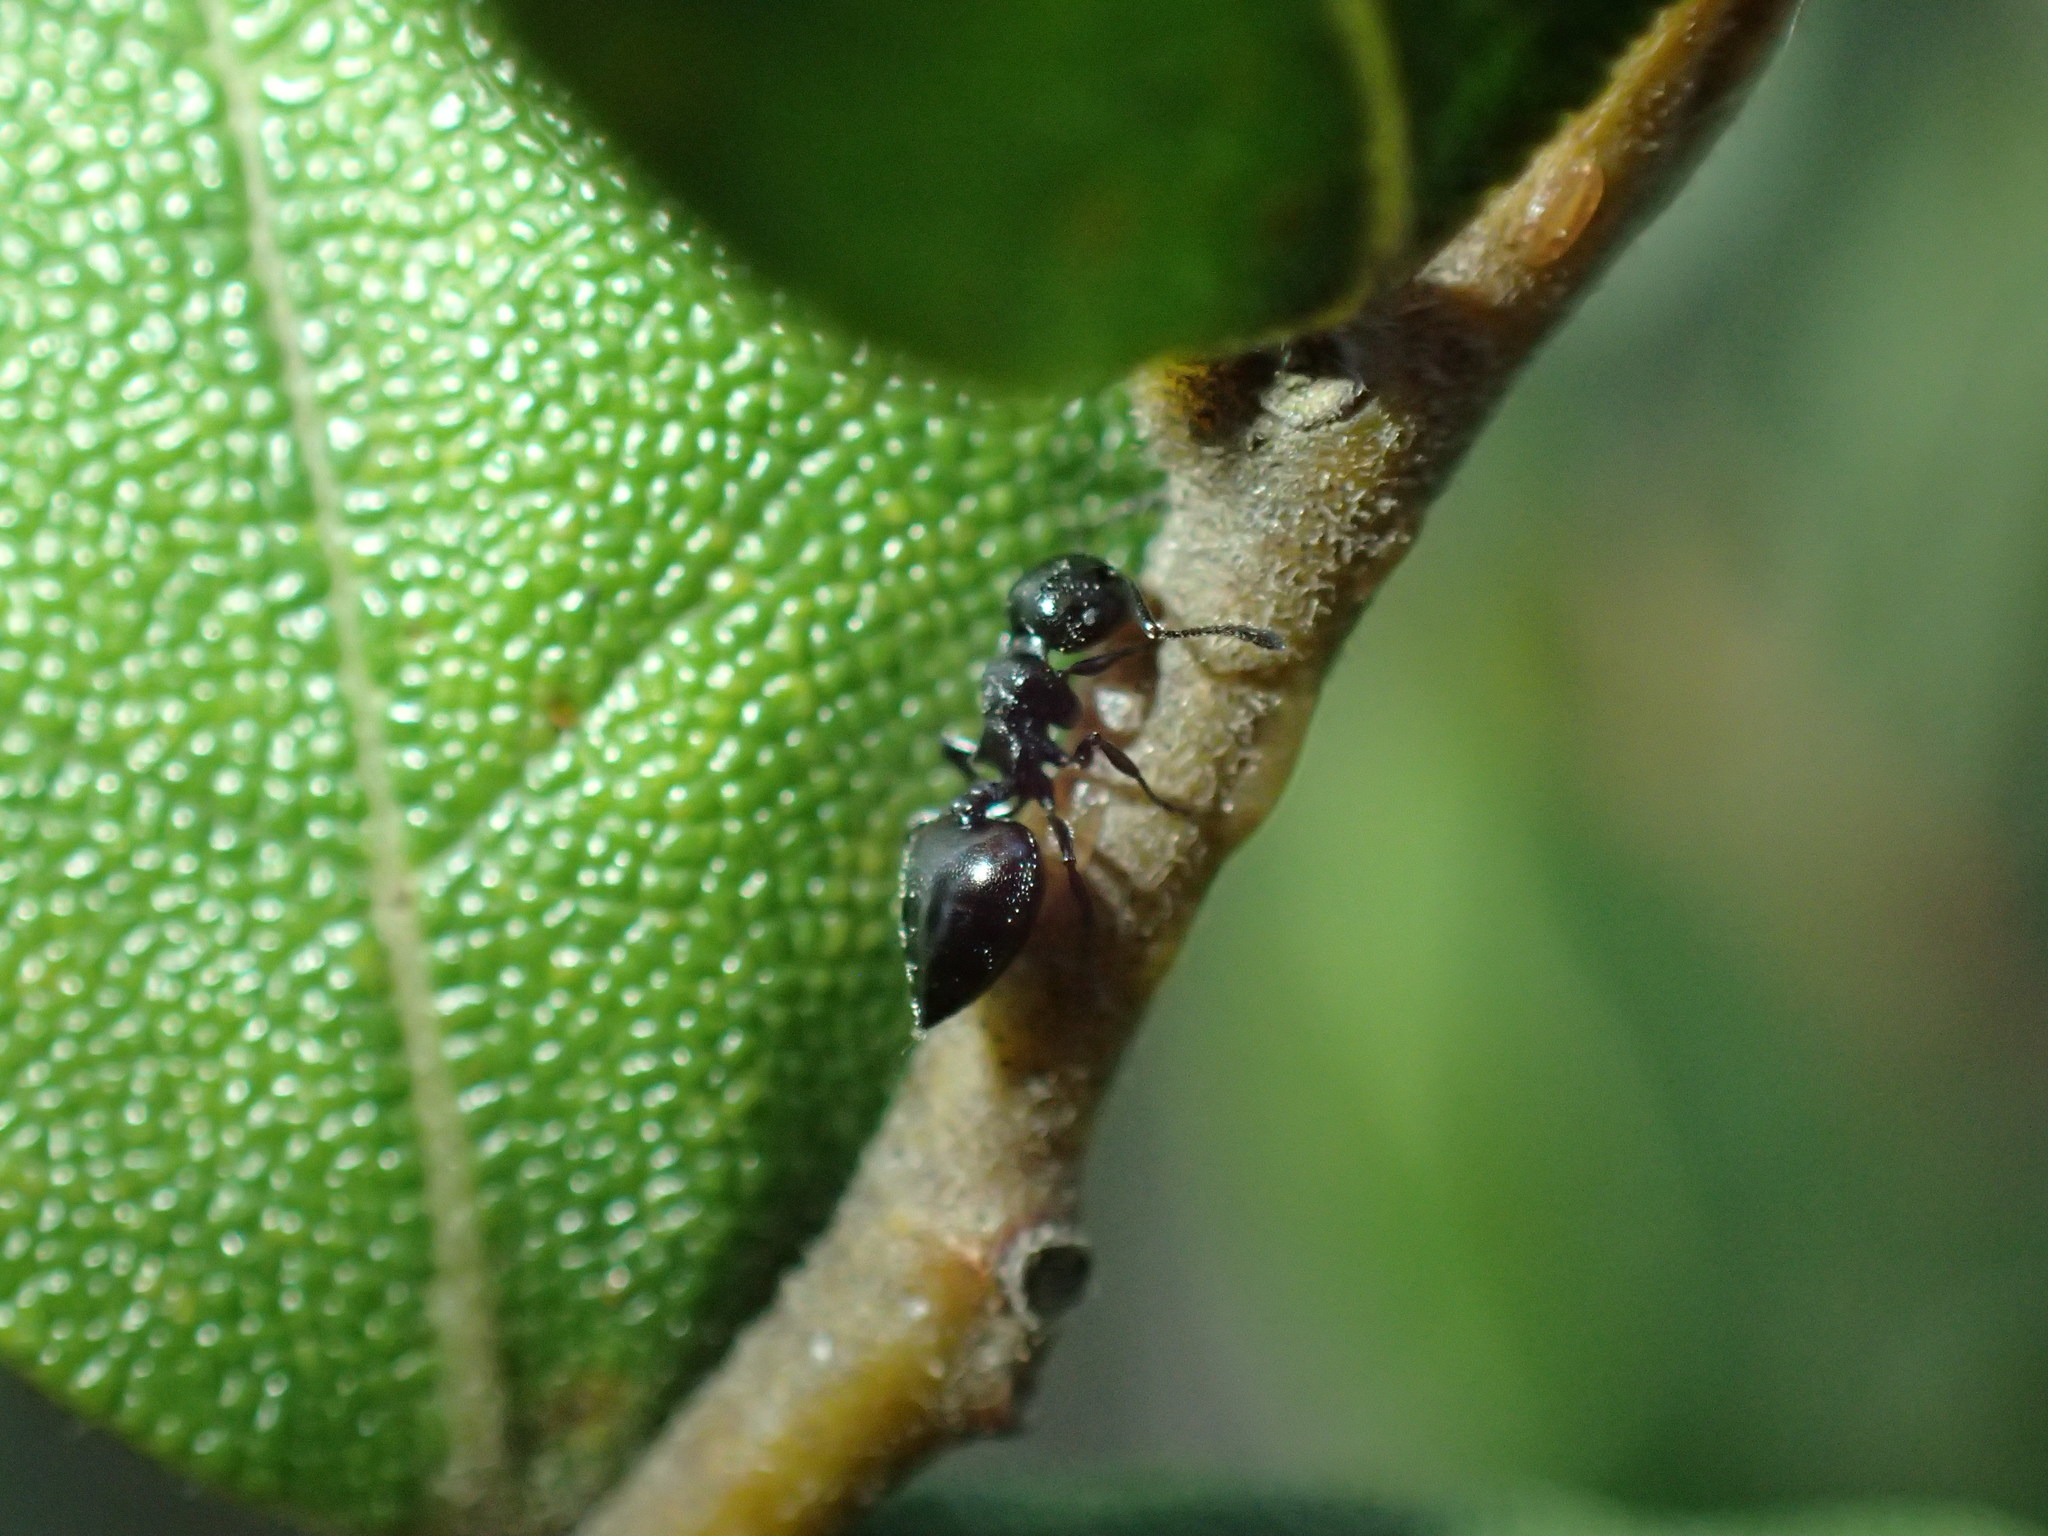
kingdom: Animalia
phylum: Arthropoda
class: Insecta
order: Hymenoptera
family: Formicidae
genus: Crematogaster
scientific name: Crematogaster liengmei
